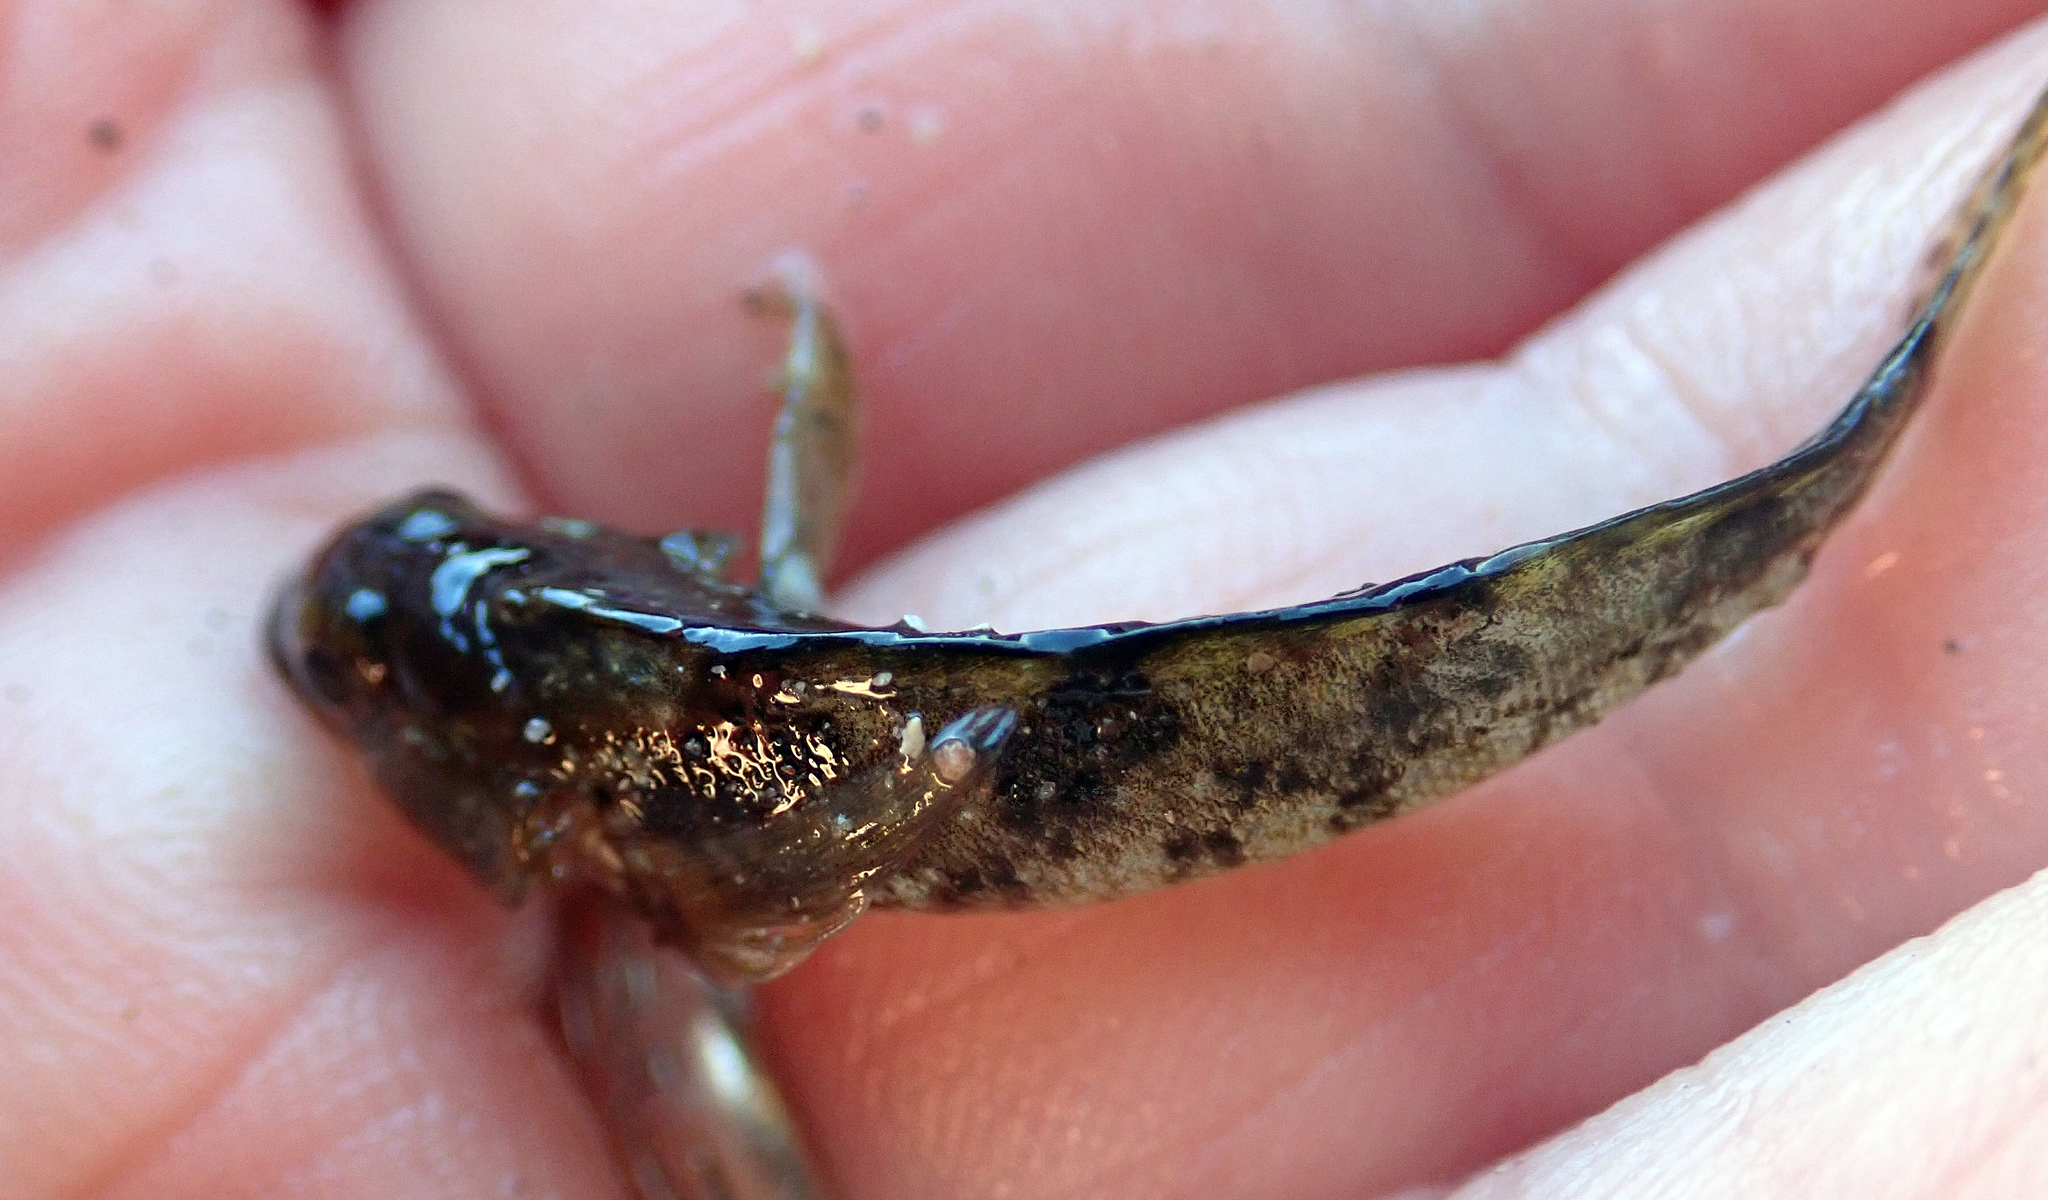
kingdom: Animalia
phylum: Chordata
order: Perciformes
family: Tripterygiidae
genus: Forsterygion
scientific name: Forsterygion capito
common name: Spotted robust triplefin
